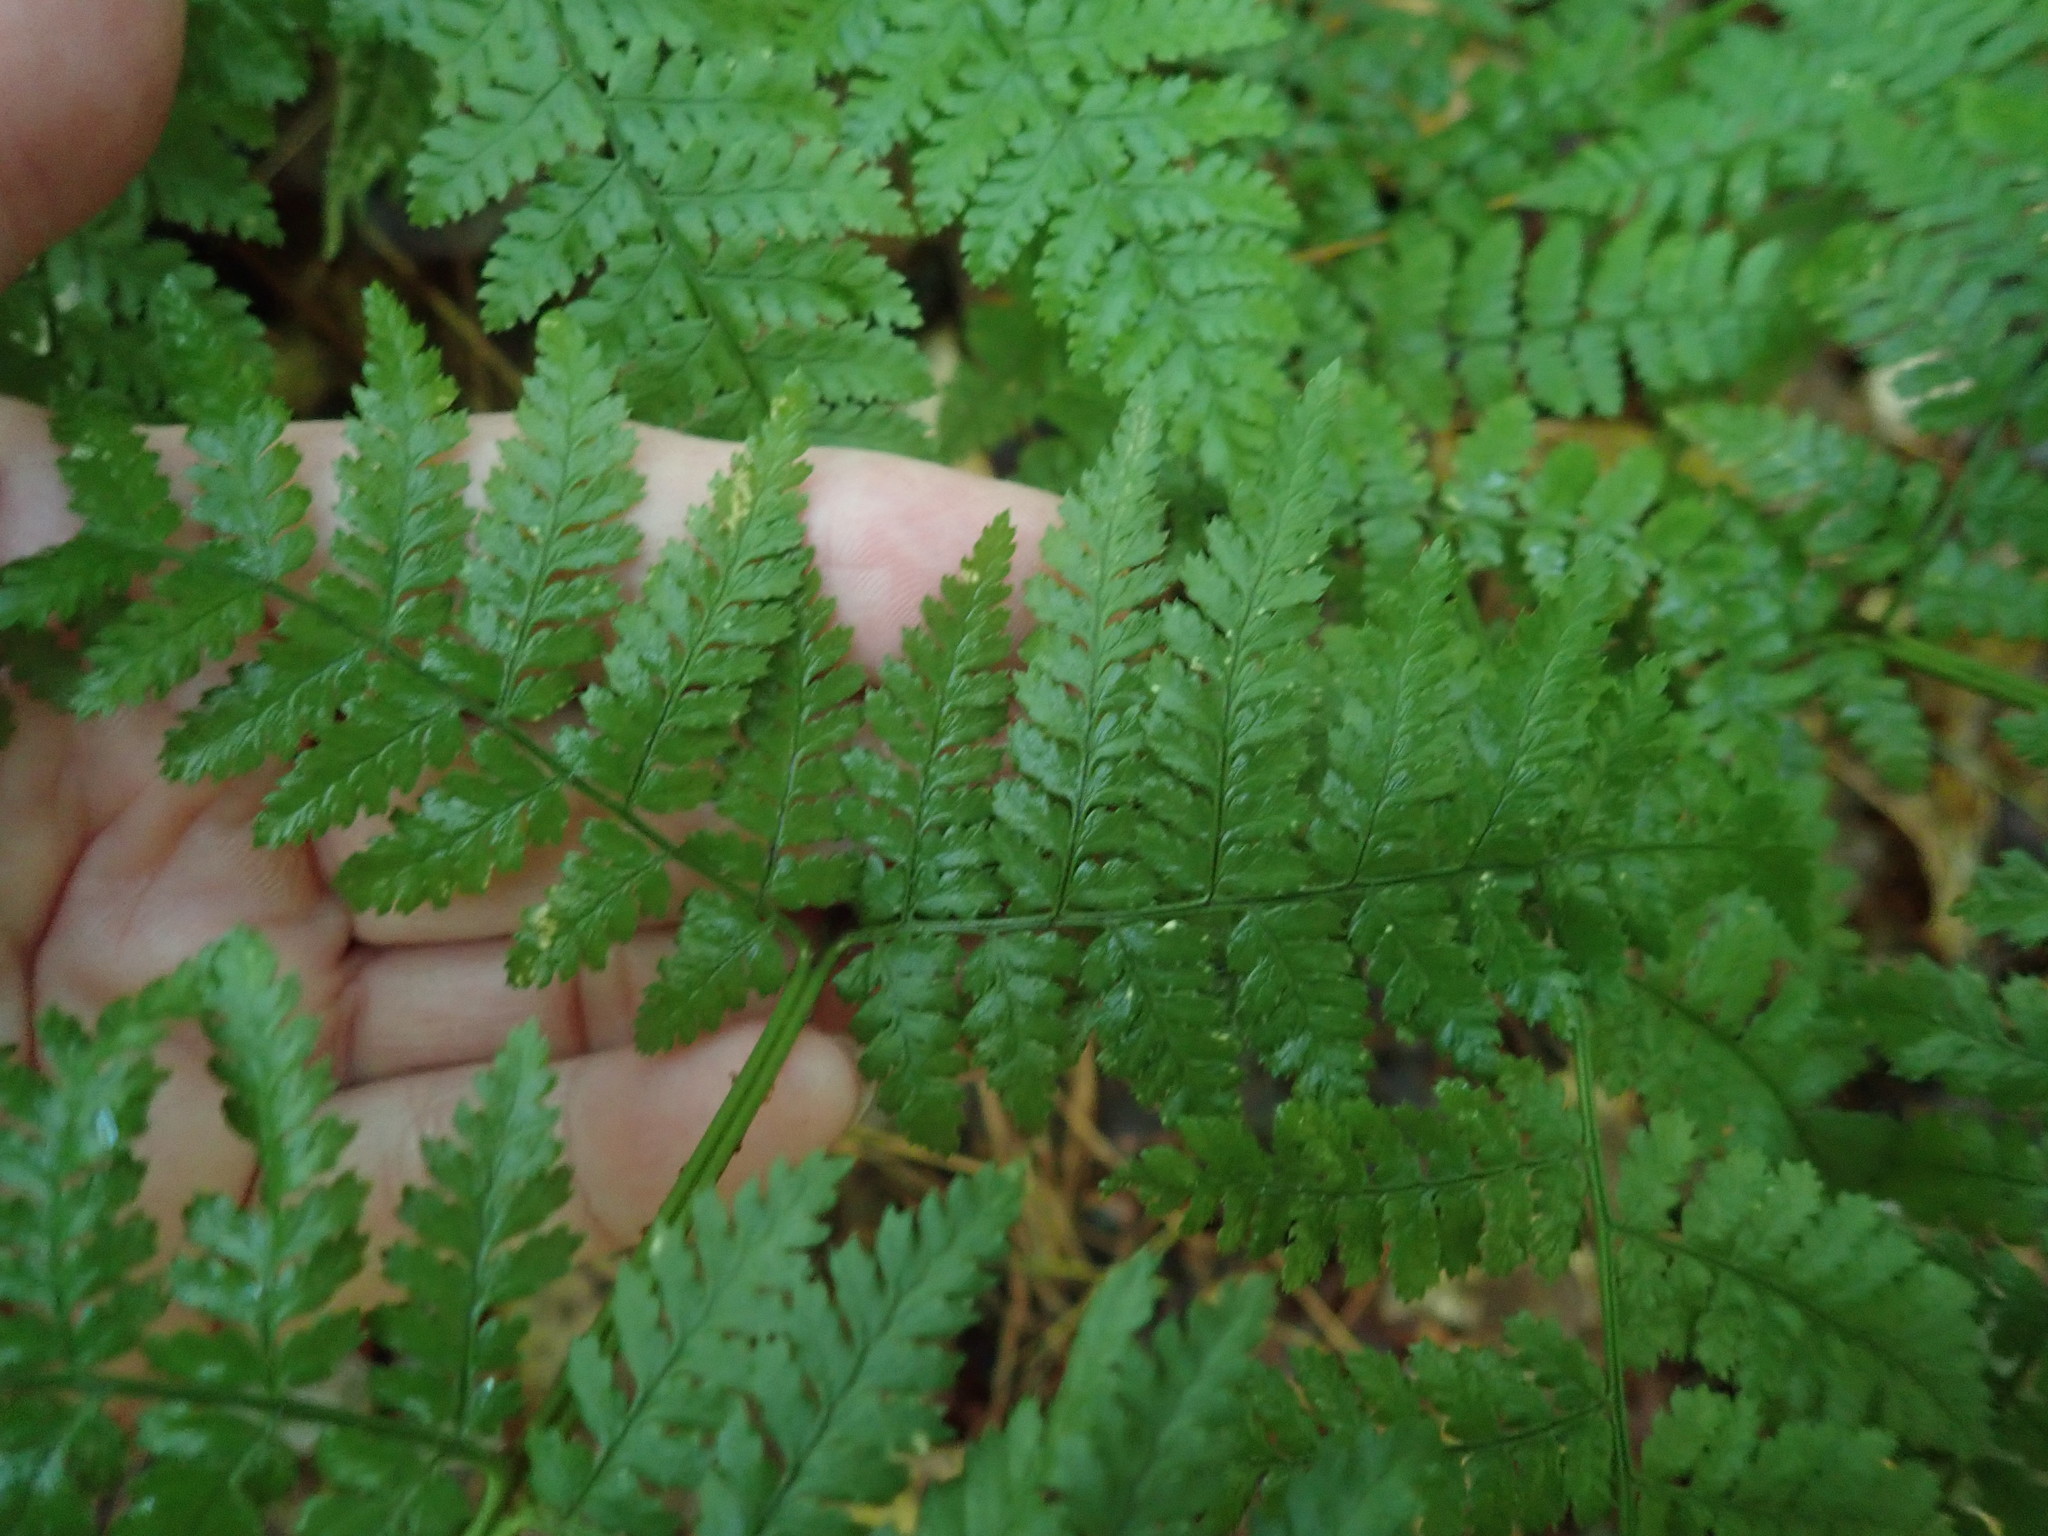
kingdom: Plantae
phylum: Tracheophyta
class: Polypodiopsida
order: Polypodiales
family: Dryopteridaceae
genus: Dryopteris
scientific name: Dryopteris intermedia
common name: Evergreen wood fern
